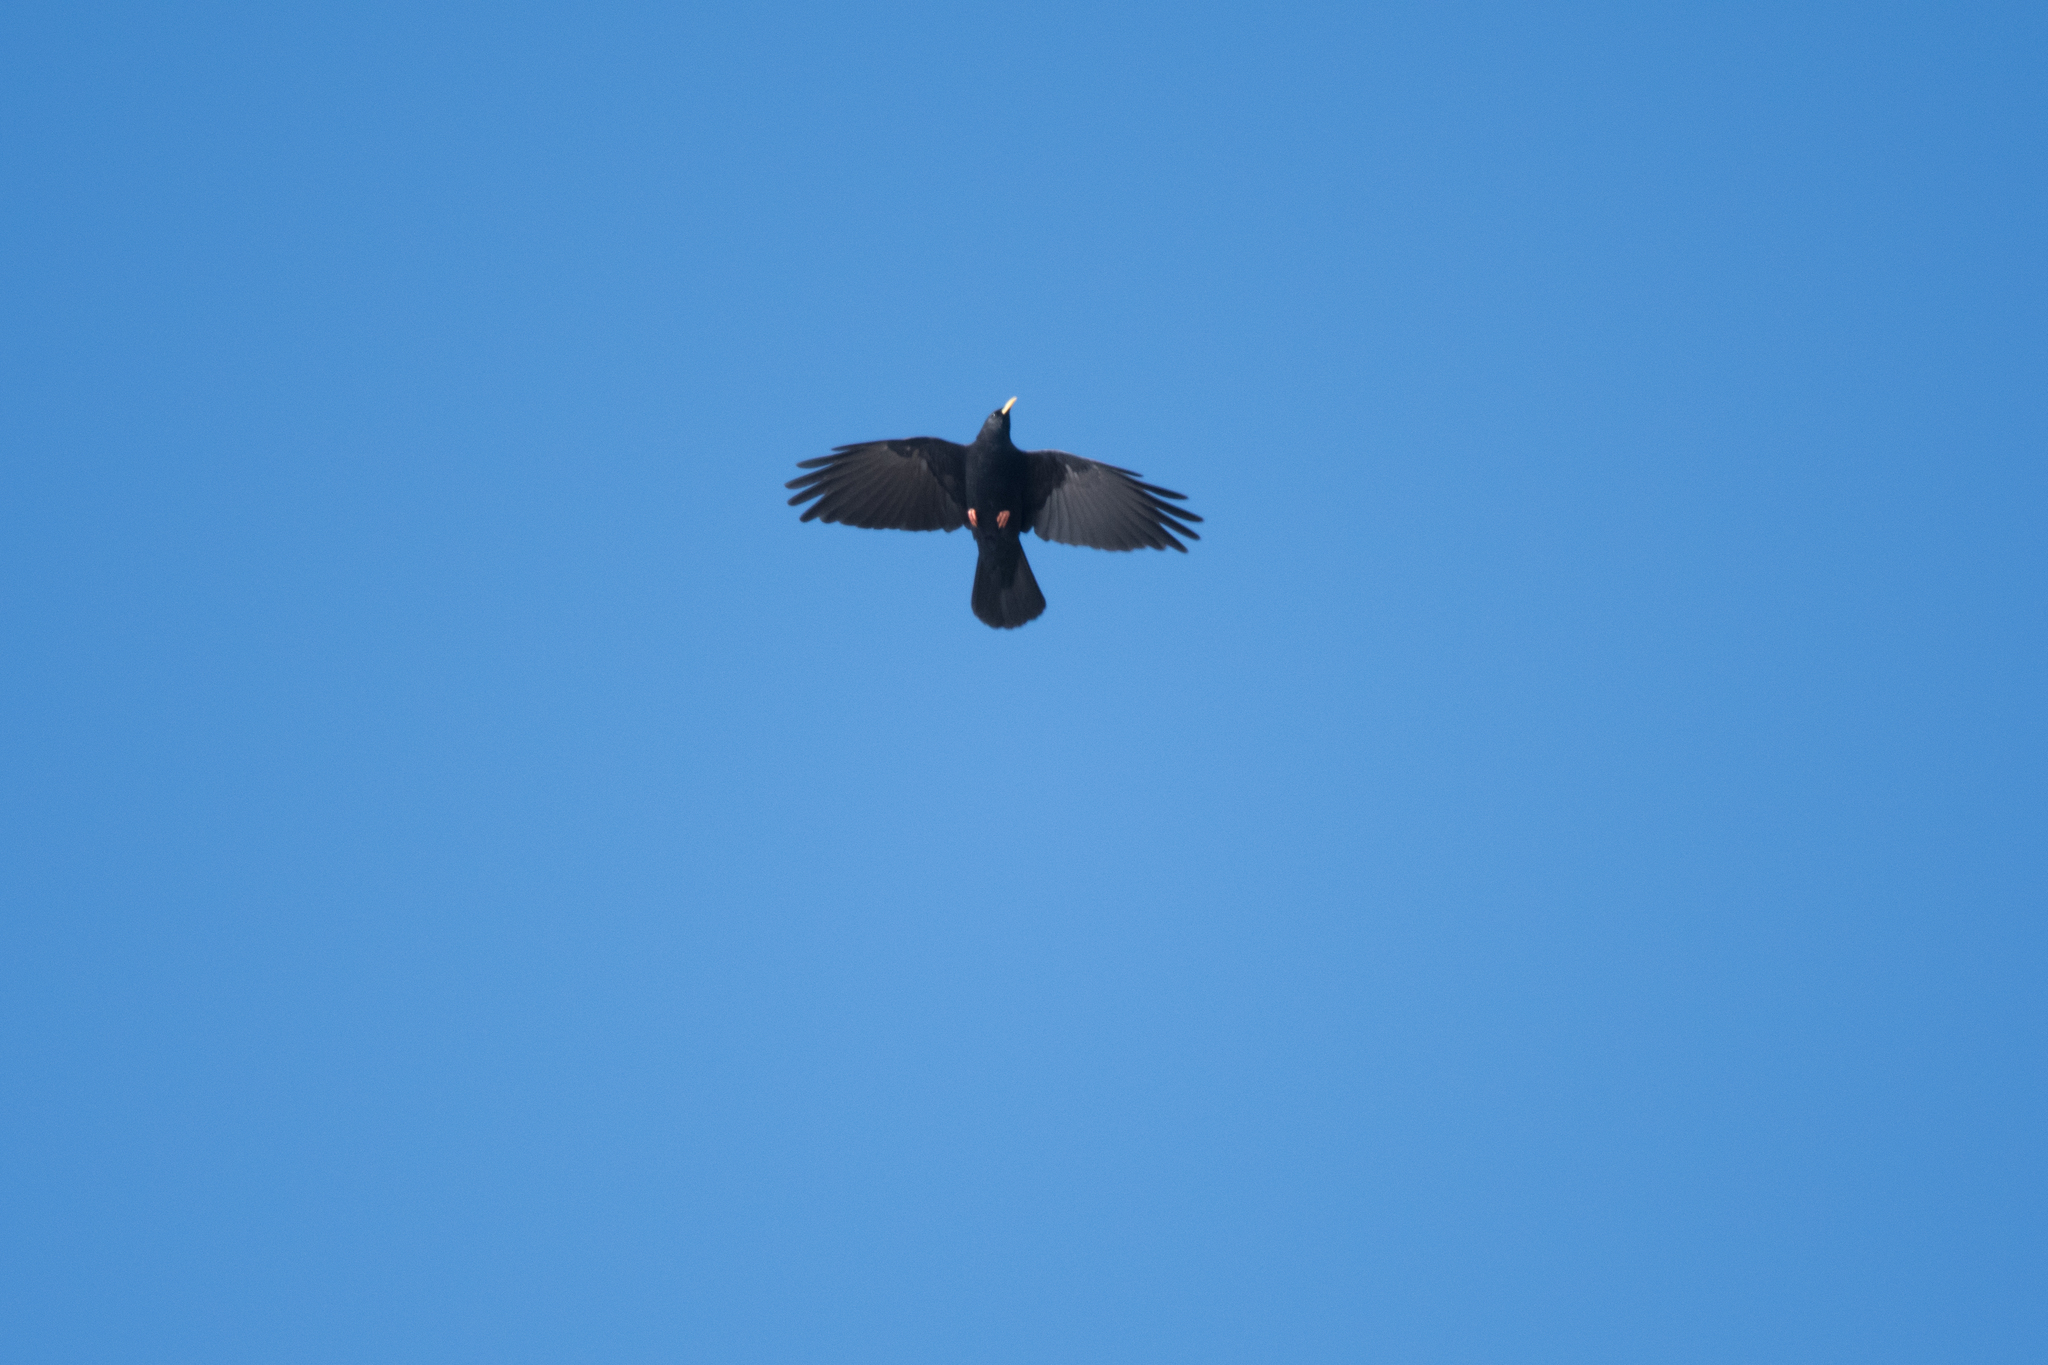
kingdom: Animalia
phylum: Chordata
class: Aves
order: Passeriformes
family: Corvidae
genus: Pyrrhocorax
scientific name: Pyrrhocorax graculus
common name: Alpine chough
